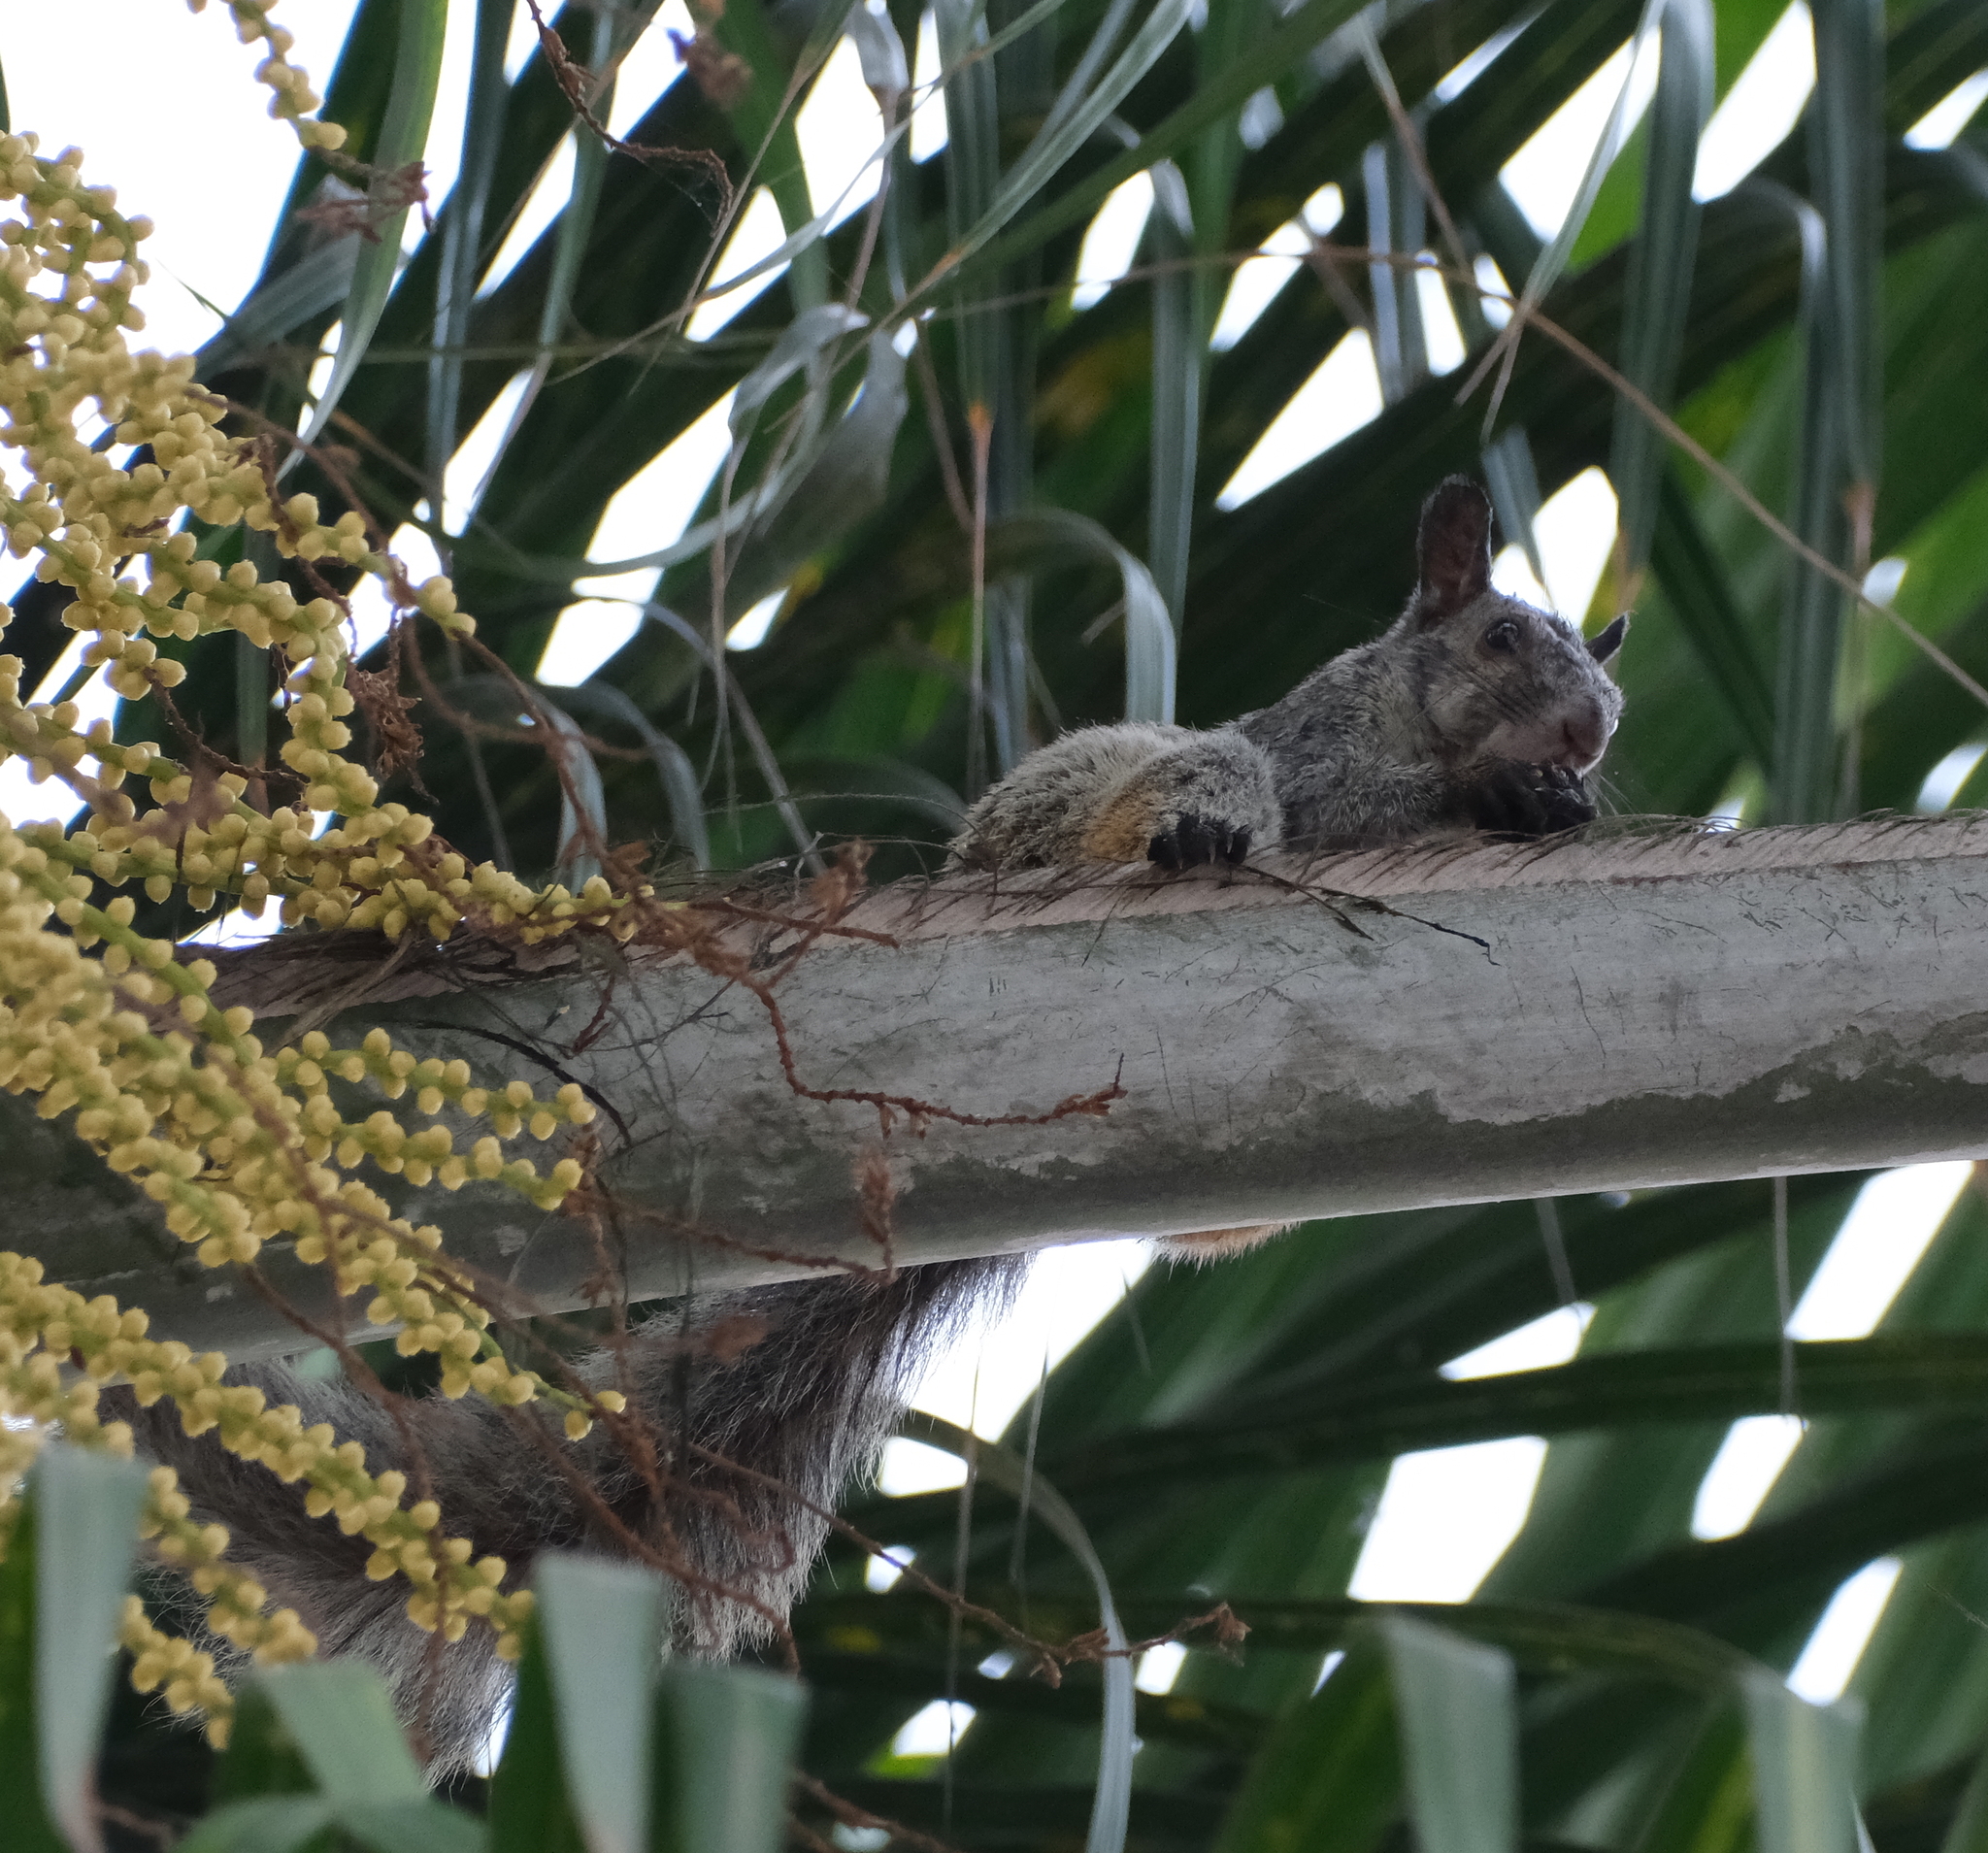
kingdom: Animalia
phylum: Chordata
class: Mammalia
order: Rodentia
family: Sciuridae
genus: Sciurus
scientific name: Sciurus stramineus
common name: Guayaquil squirrel
